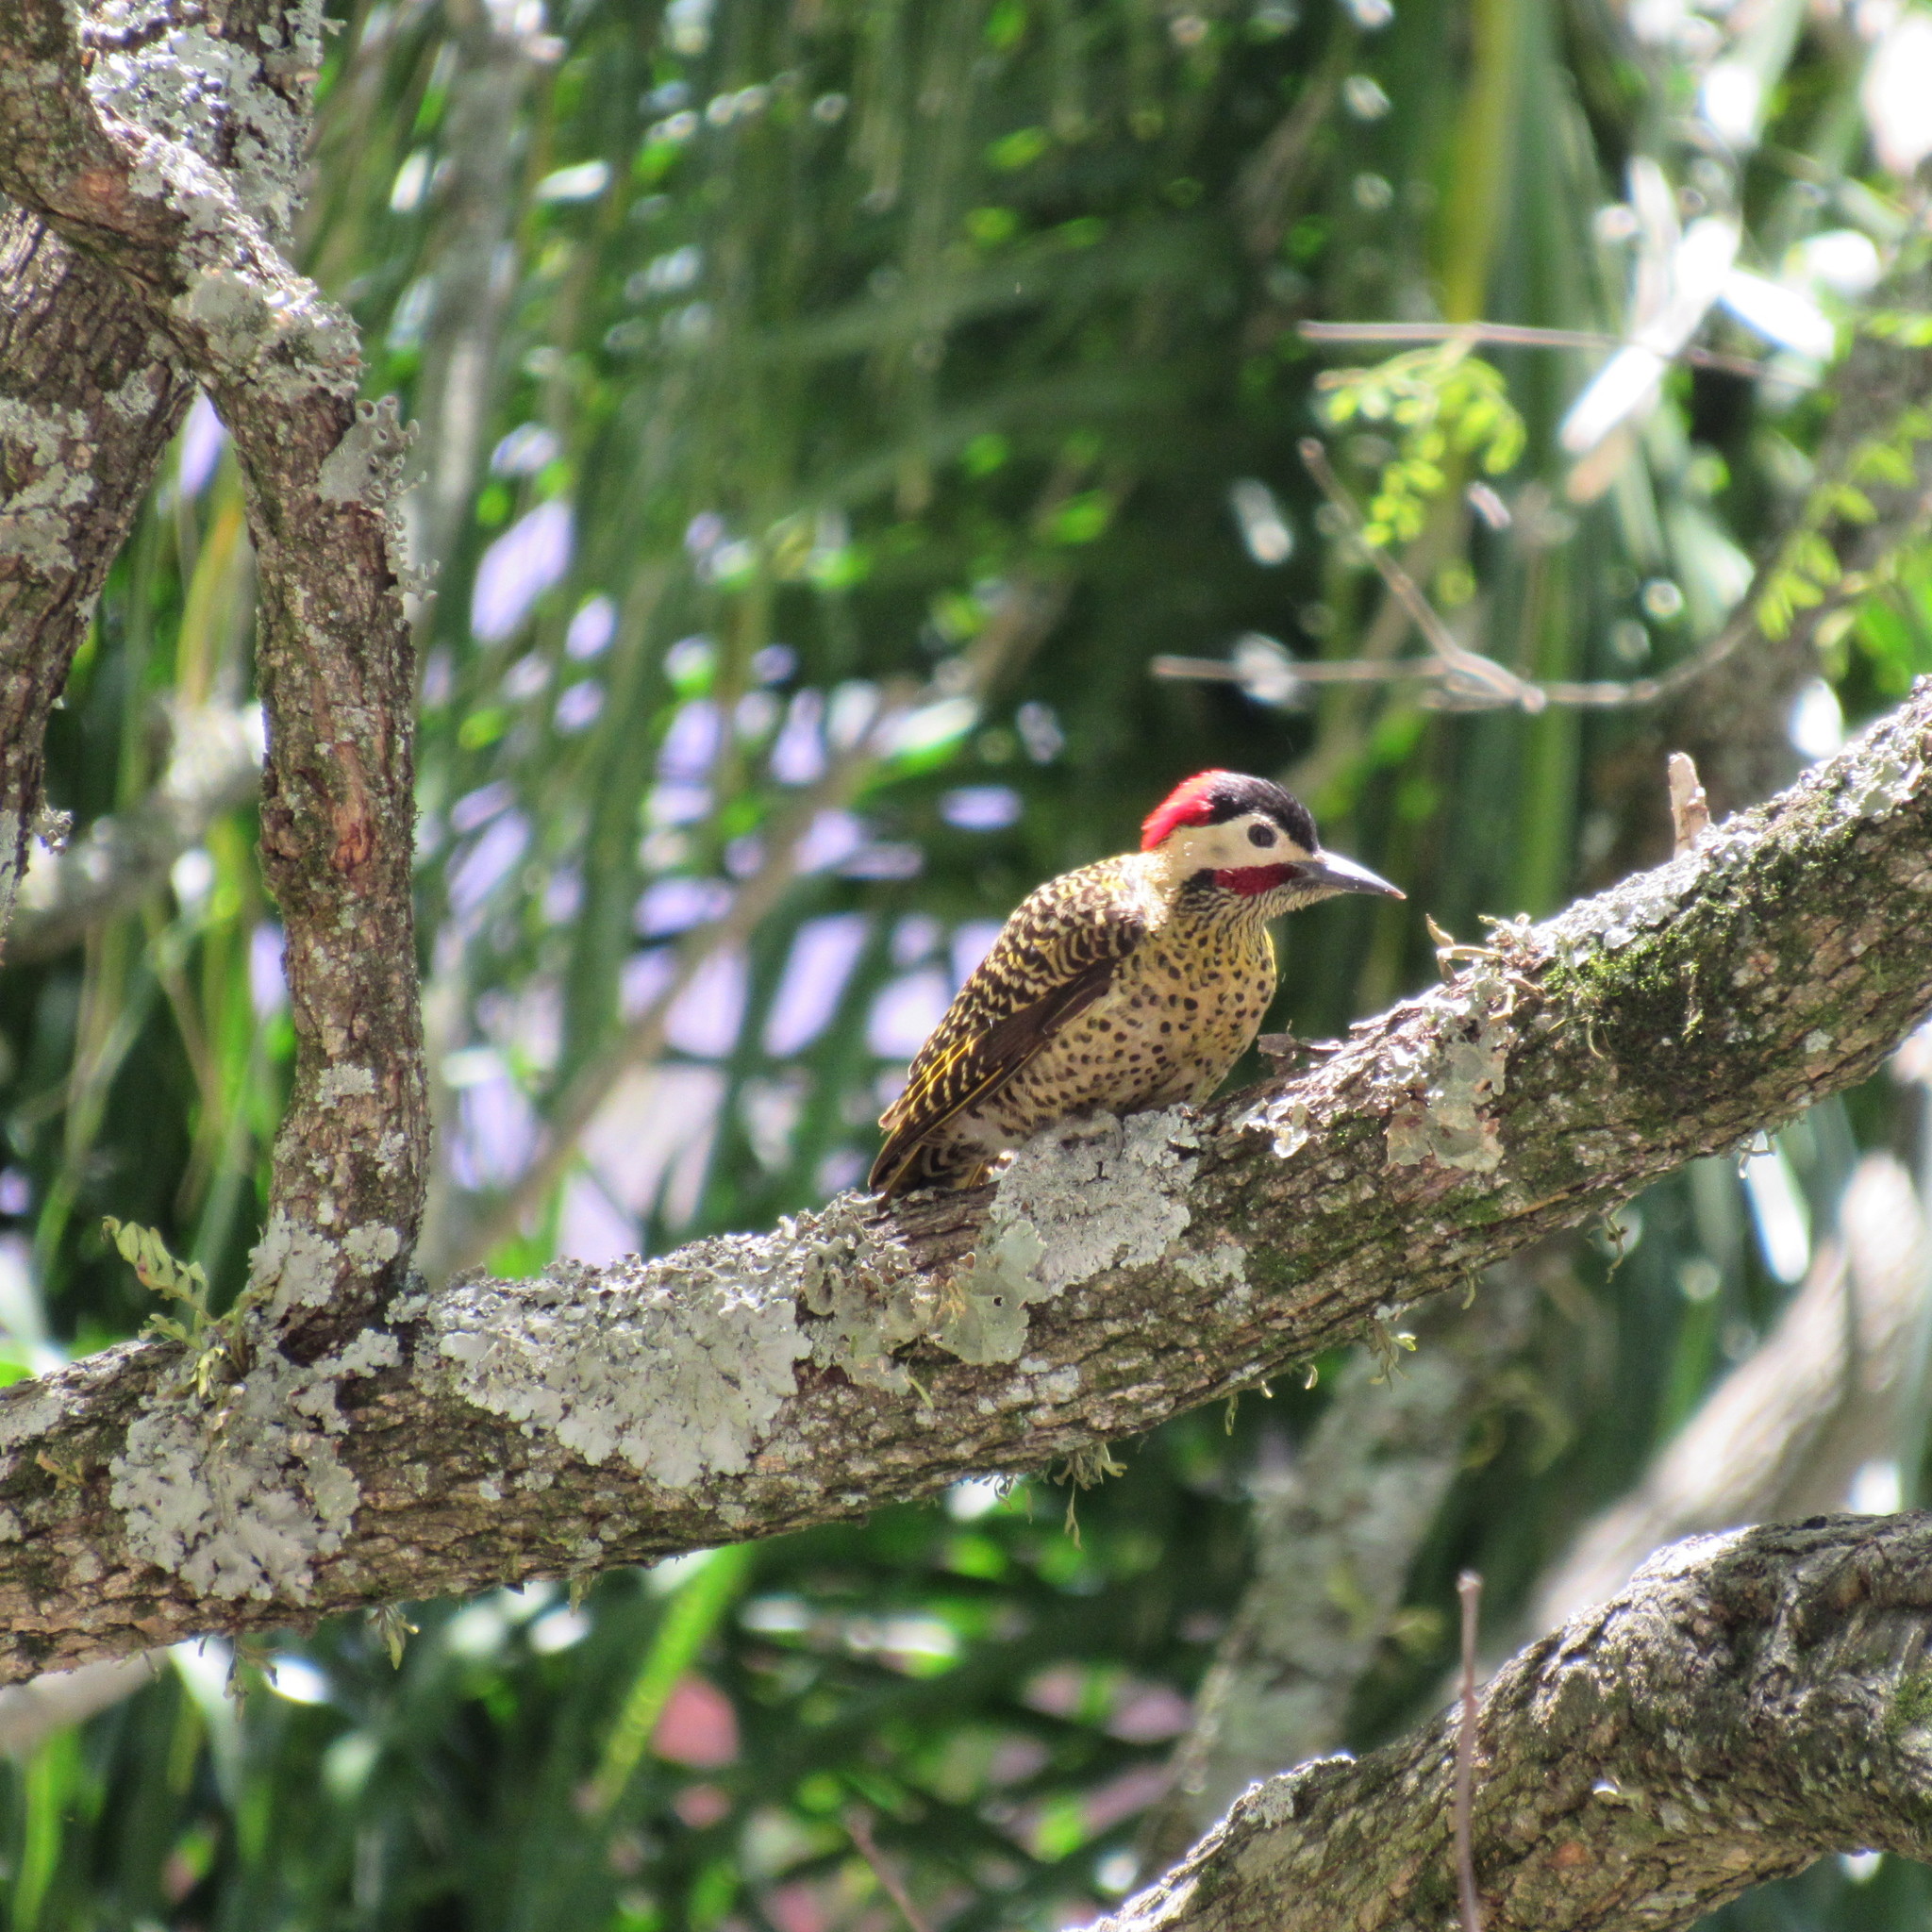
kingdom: Animalia
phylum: Chordata
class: Aves
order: Piciformes
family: Picidae
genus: Colaptes
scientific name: Colaptes melanochloros
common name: Green-barred woodpecker
